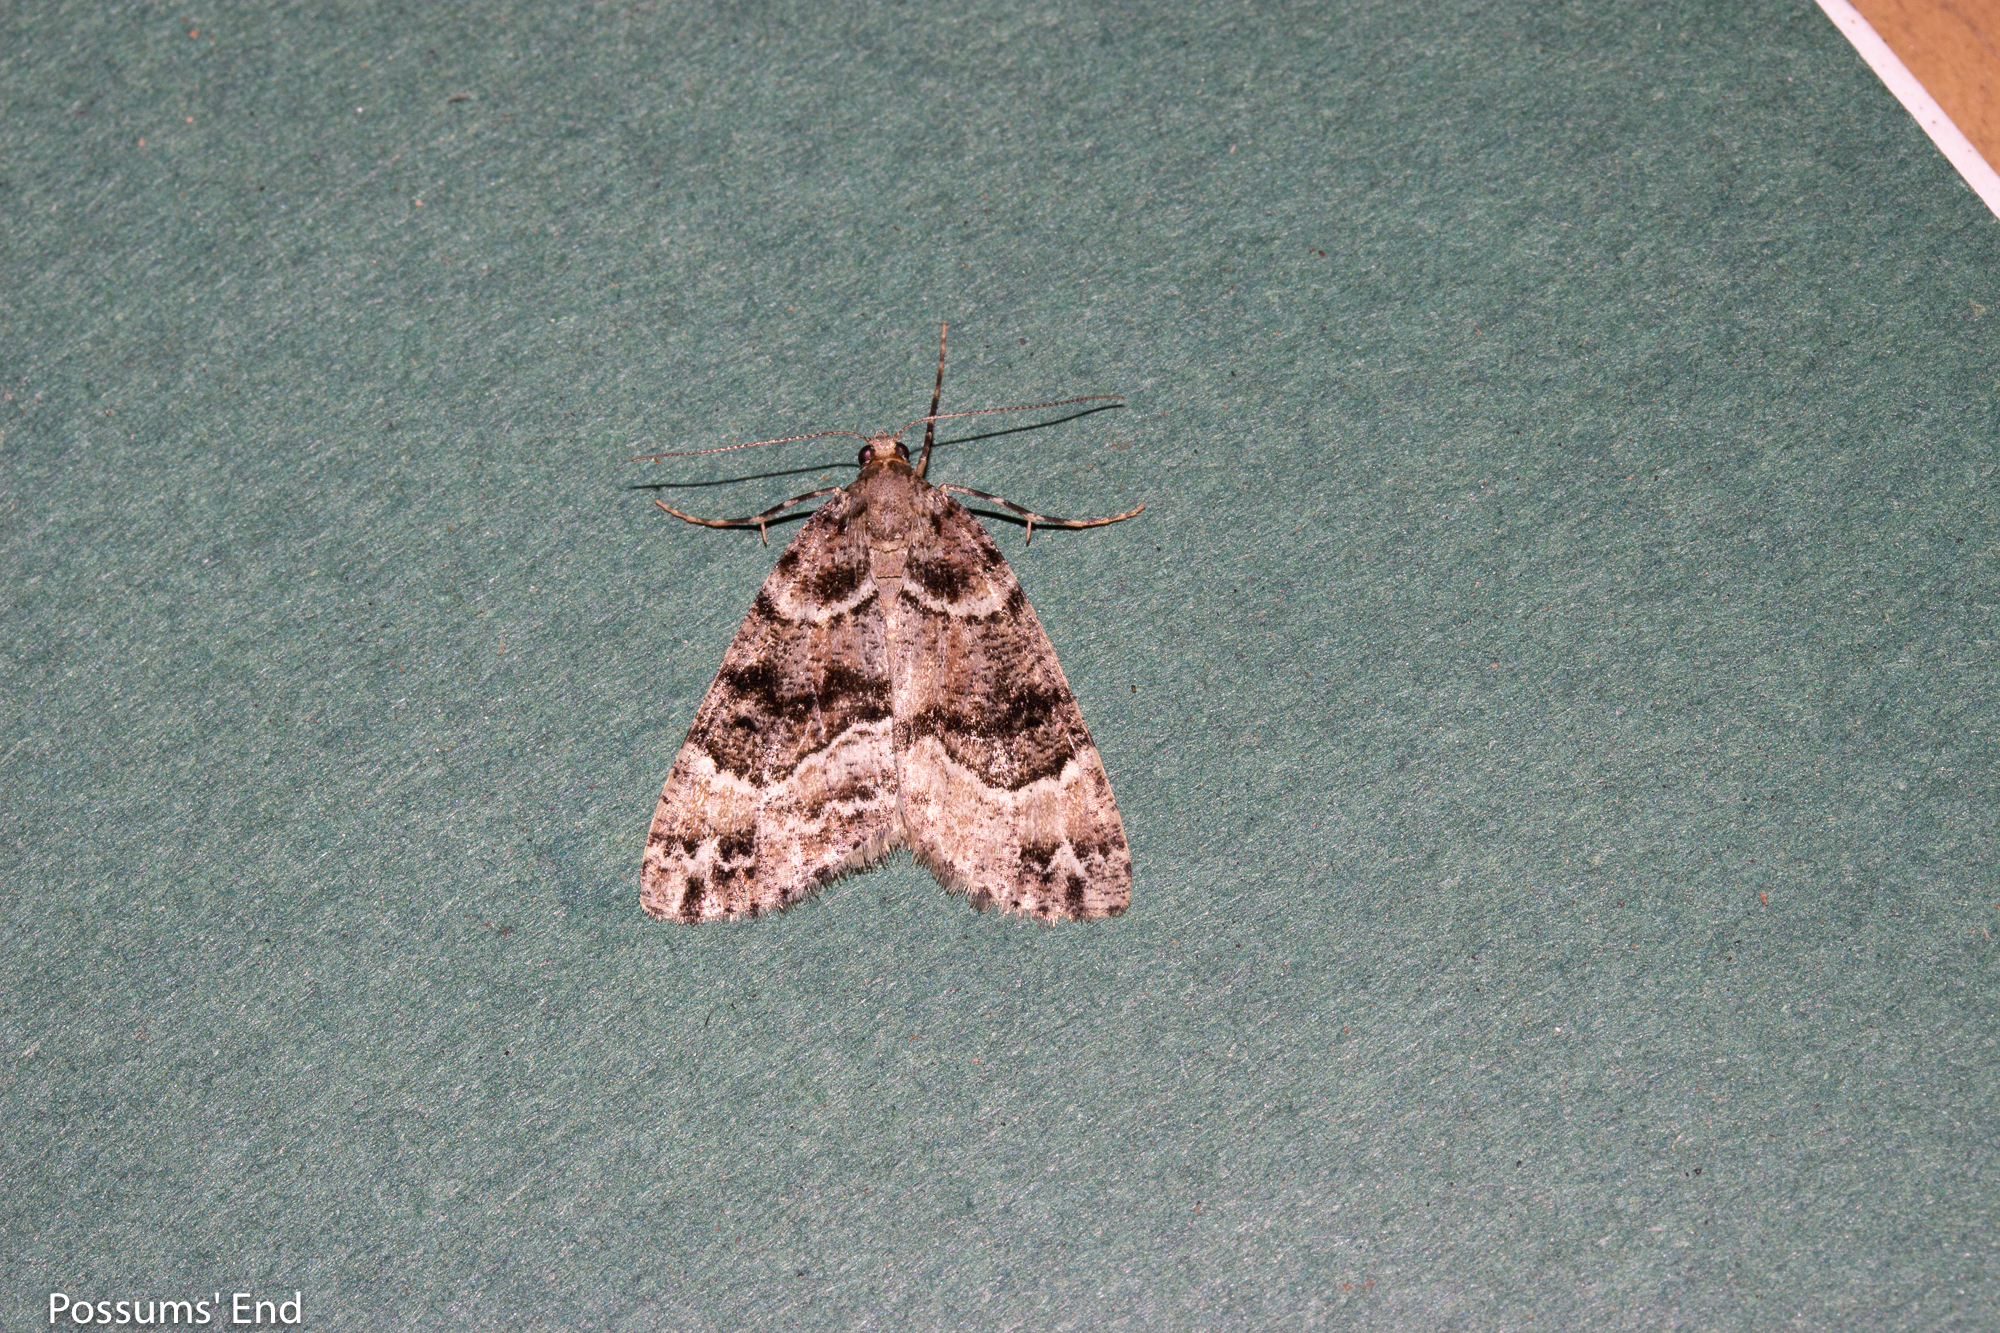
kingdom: Animalia
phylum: Arthropoda
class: Insecta
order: Lepidoptera
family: Geometridae
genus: Pseudocoremia
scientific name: Pseudocoremia productata
